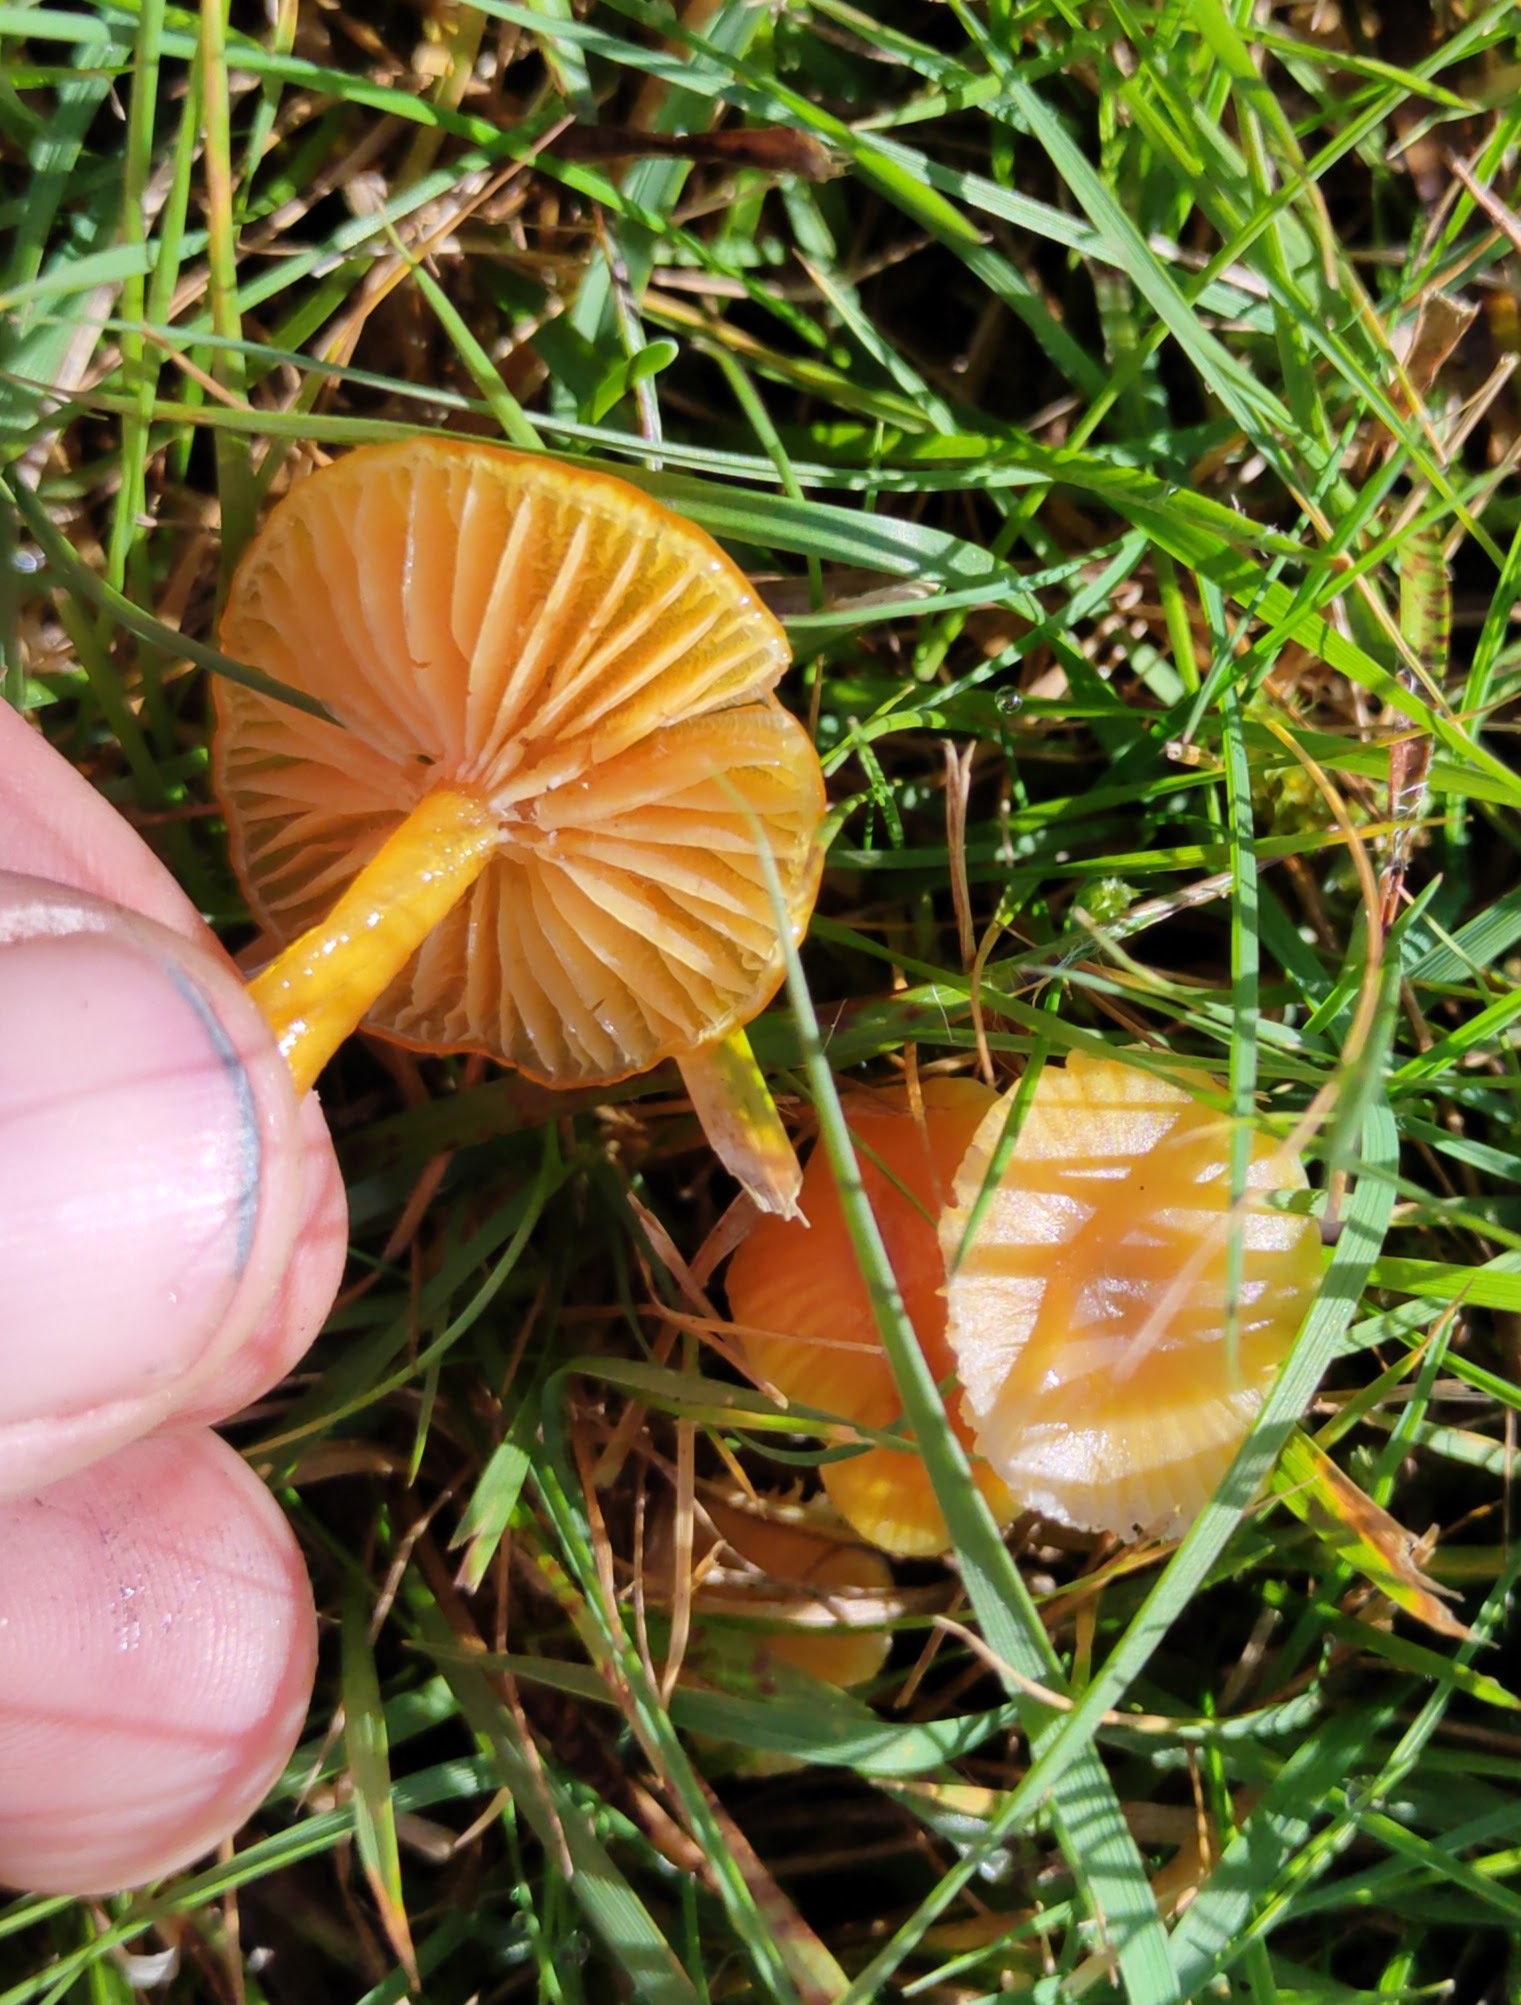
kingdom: Fungi
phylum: Basidiomycota
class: Agaricomycetes
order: Agaricales
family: Hygrophoraceae
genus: Hygrocybe
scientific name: Hygrocybe glutinipes
